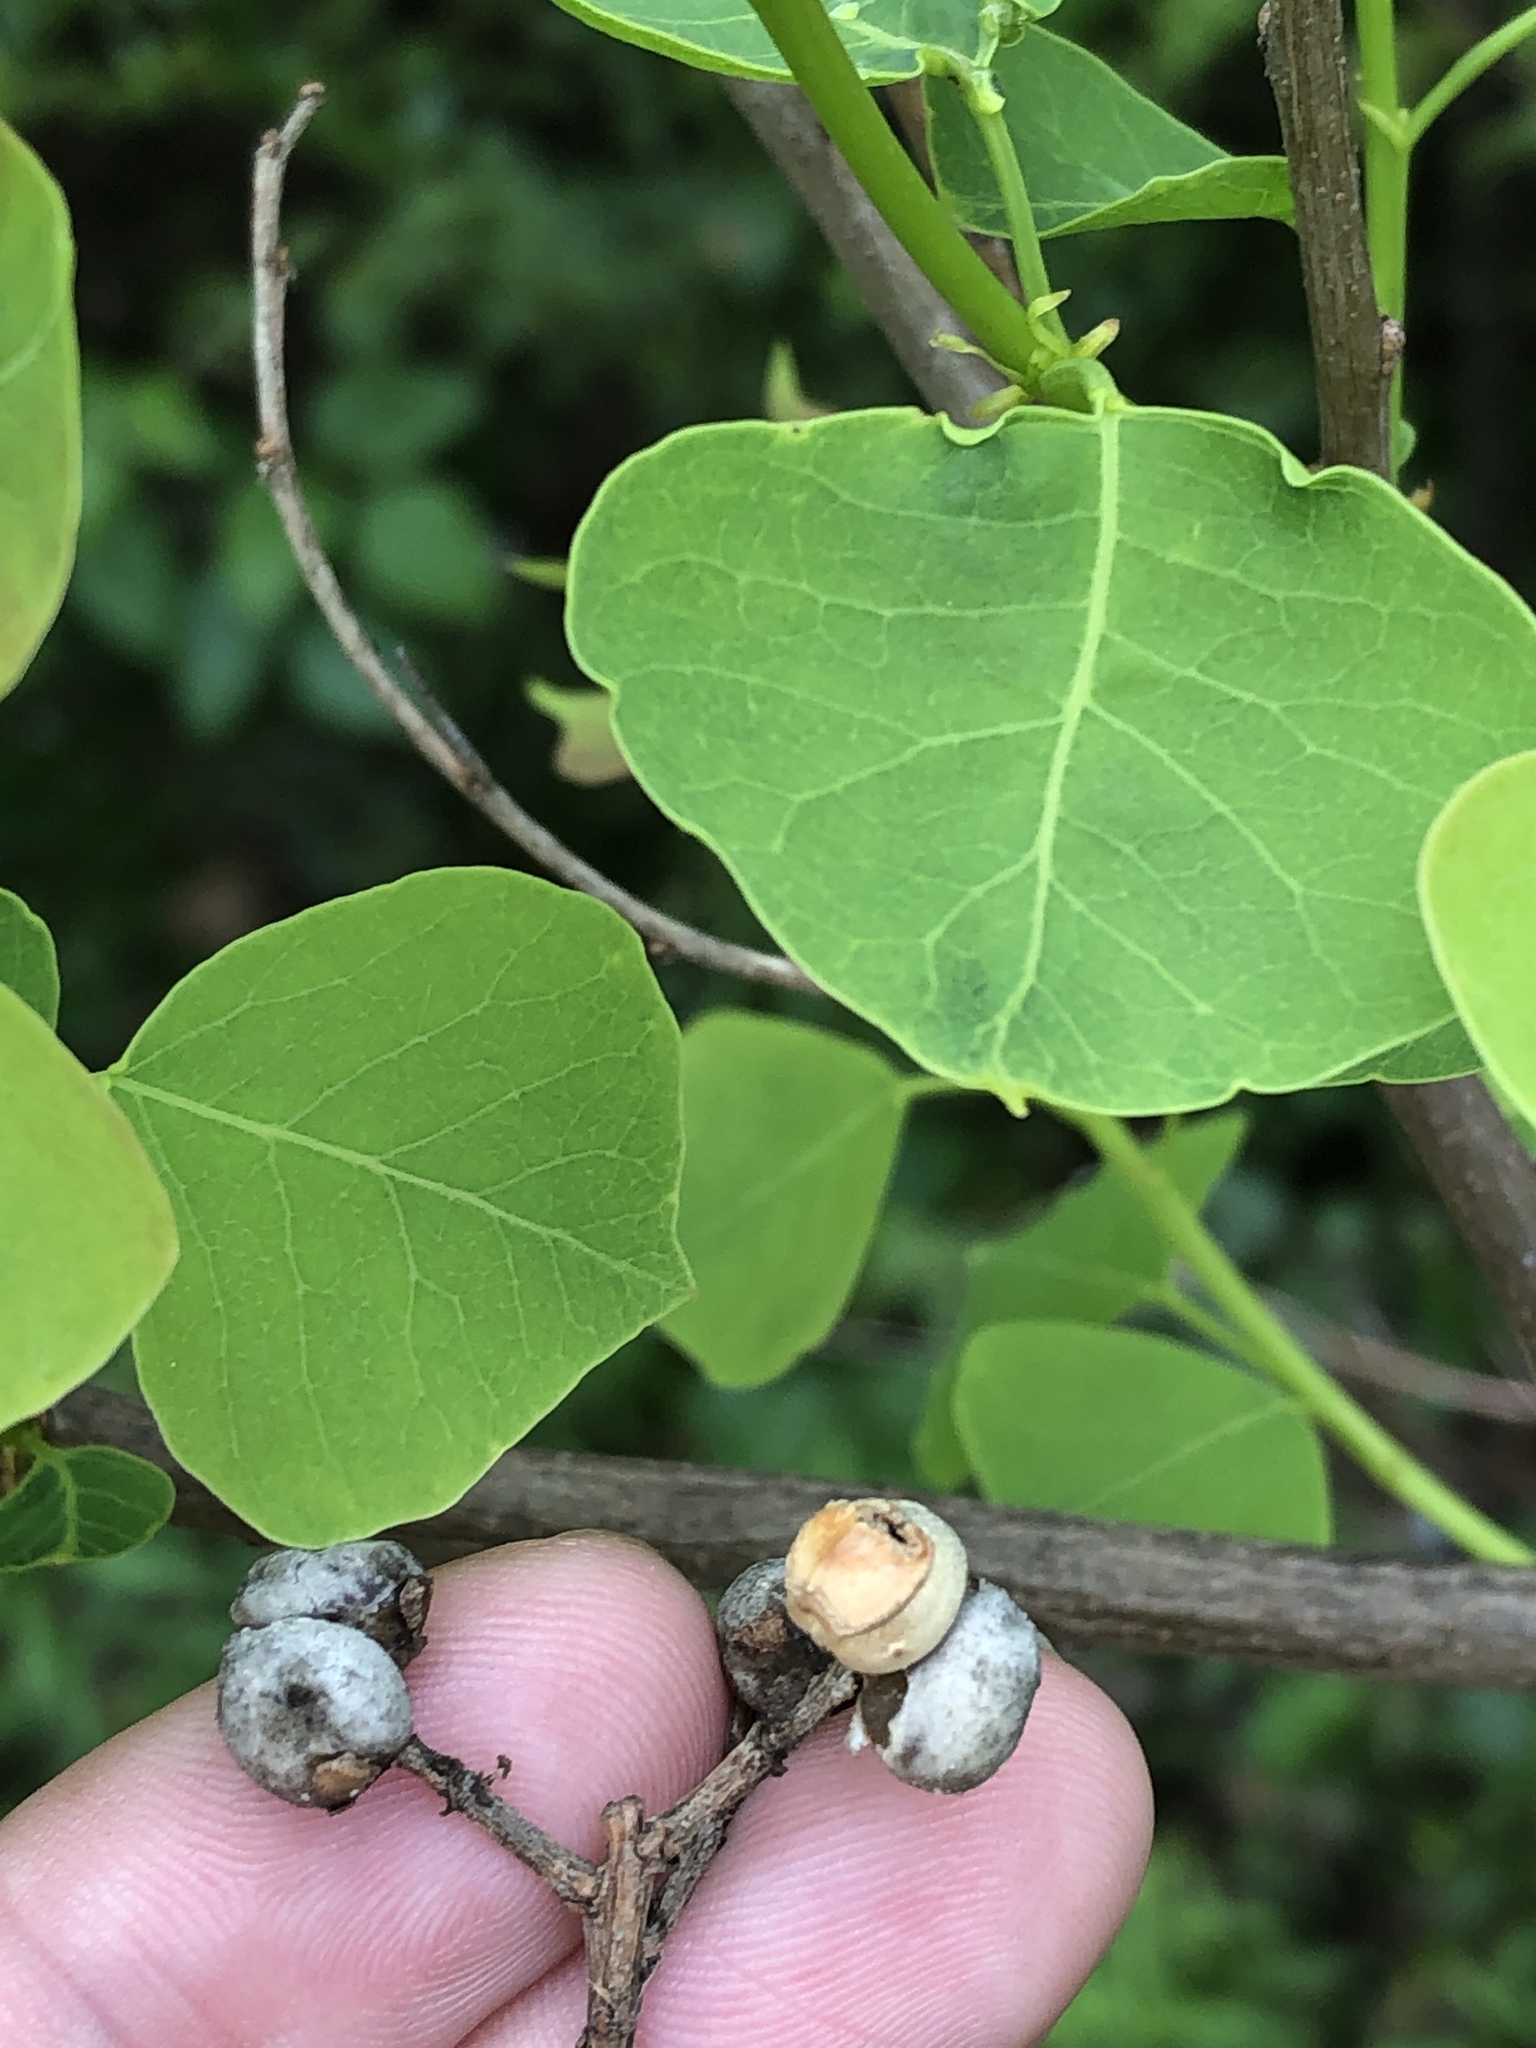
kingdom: Plantae
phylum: Tracheophyta
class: Magnoliopsida
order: Malpighiales
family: Euphorbiaceae
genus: Triadica
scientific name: Triadica sebifera
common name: Chinese tallow
